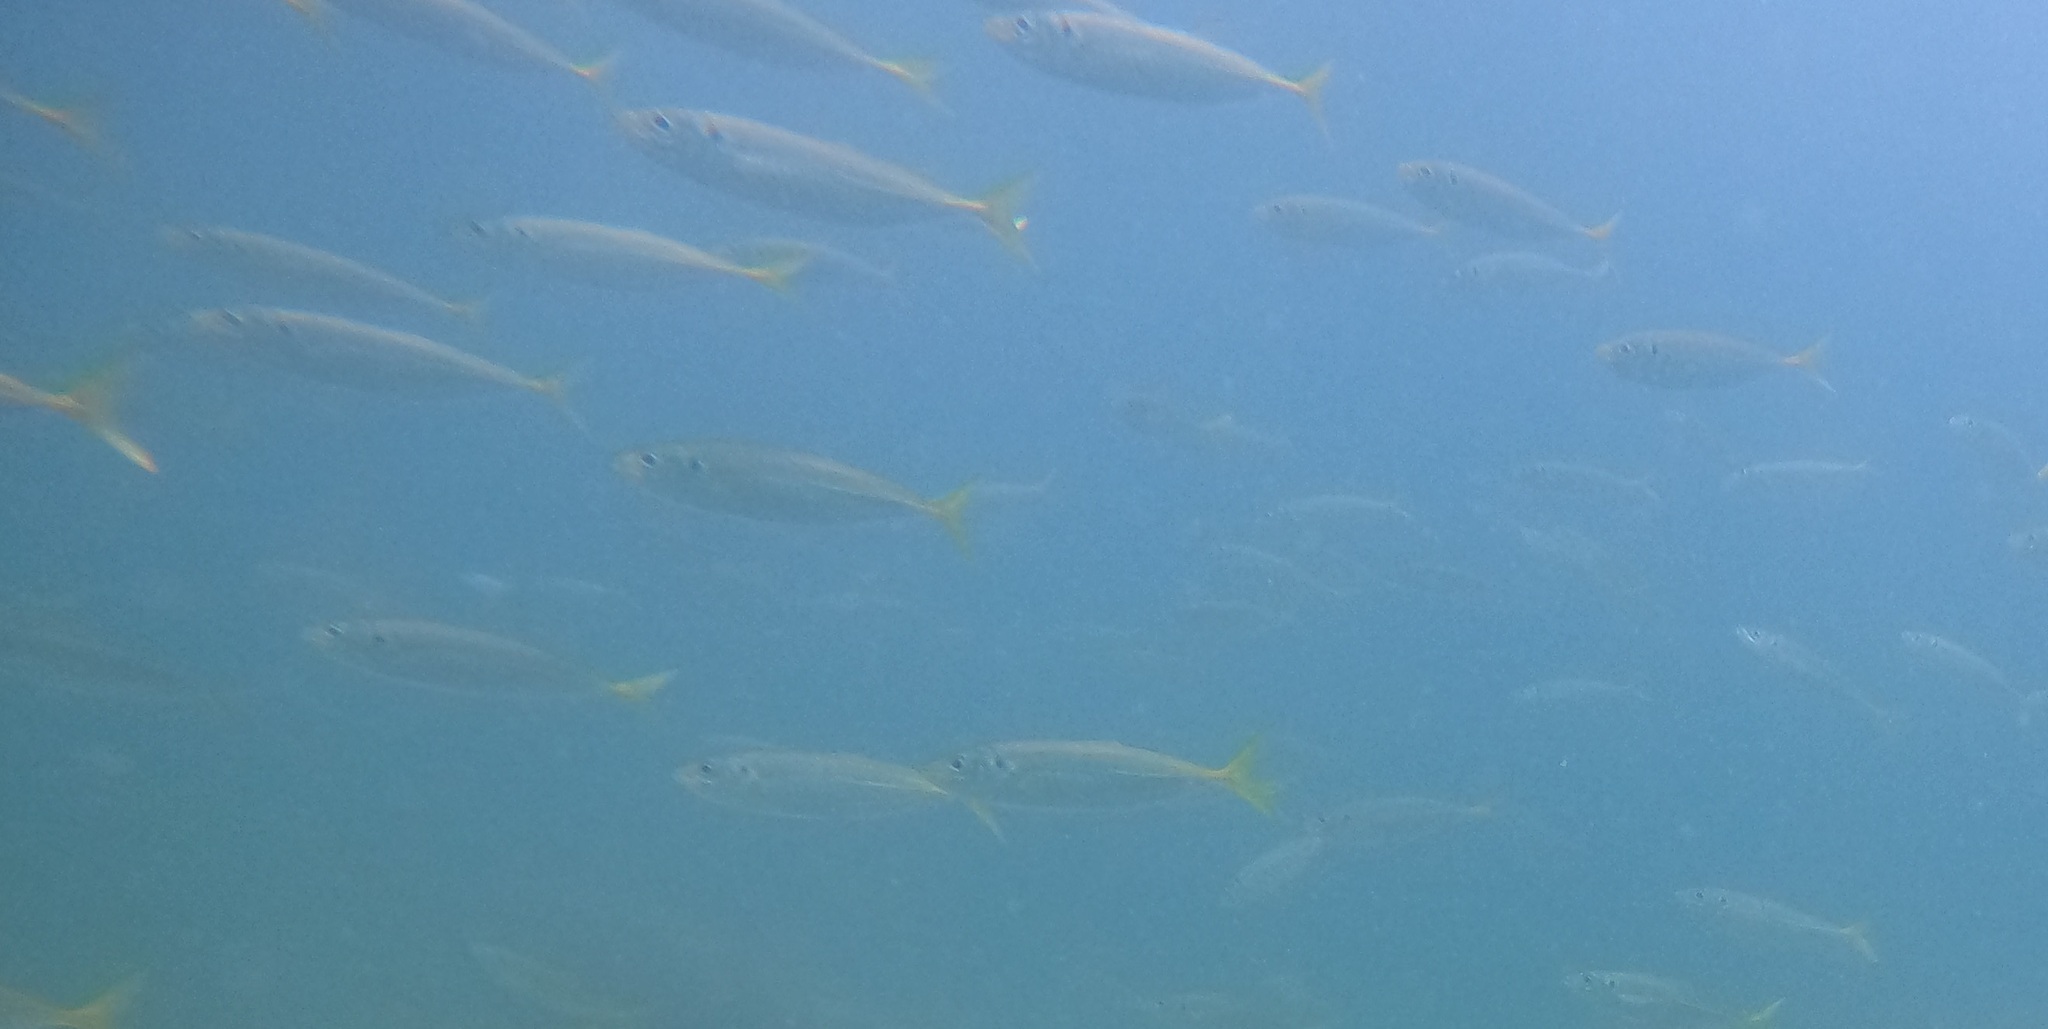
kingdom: Animalia
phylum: Chordata
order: Perciformes
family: Carangidae
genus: Trachurus
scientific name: Trachurus novaezelandiae
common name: Yellowtail horse mackerel
